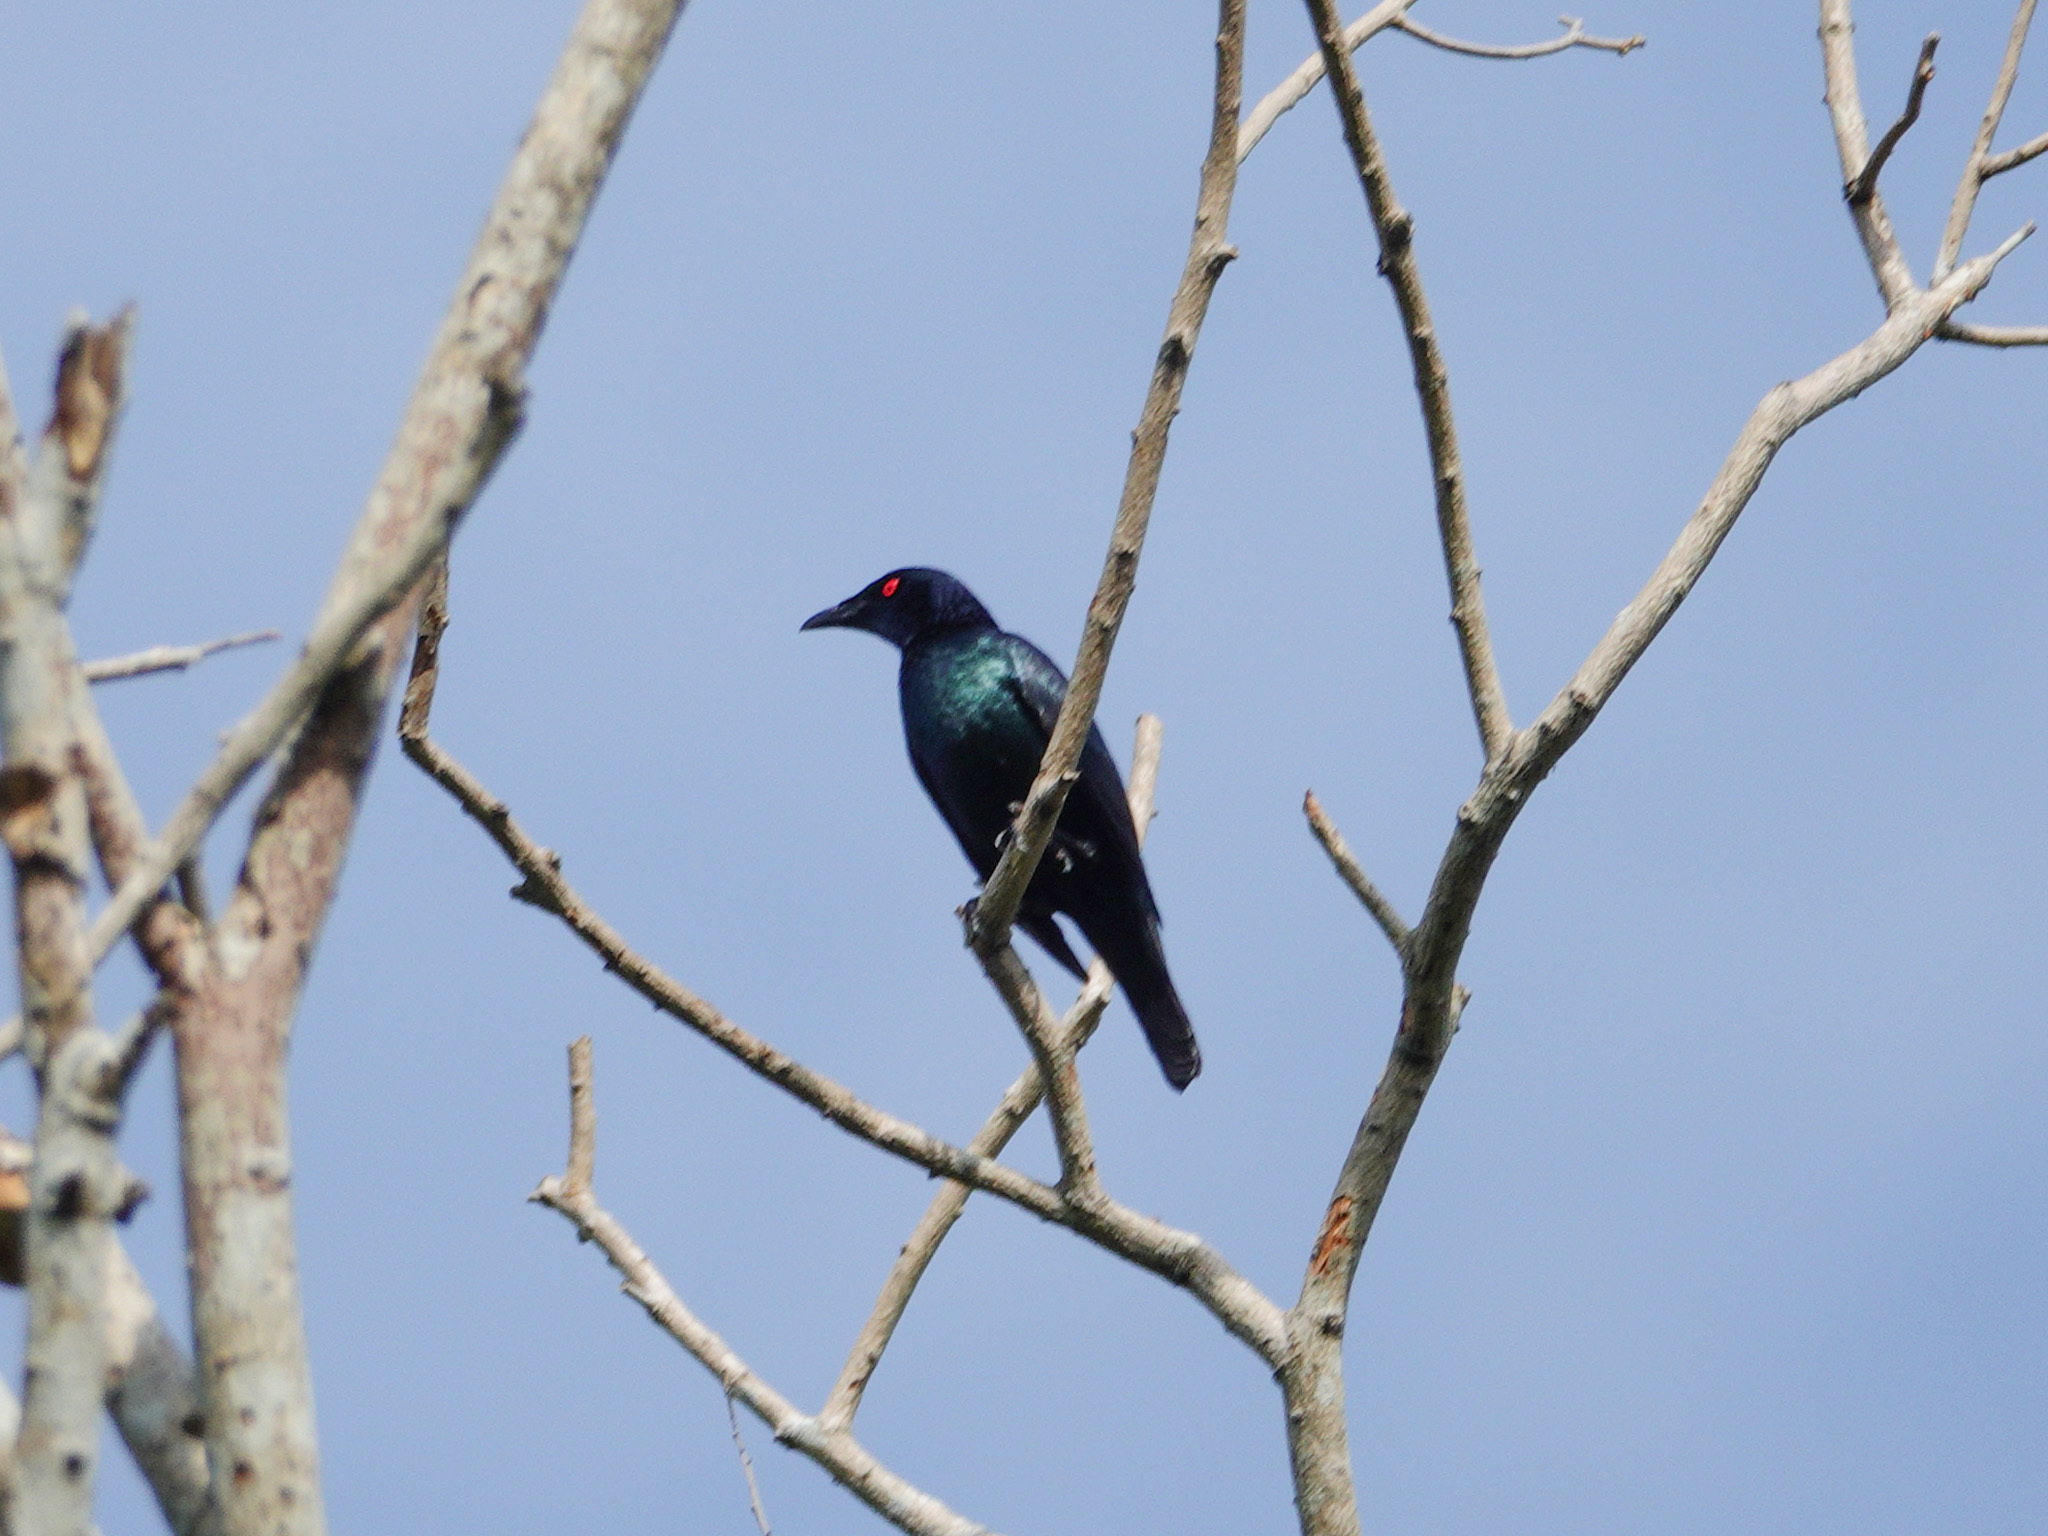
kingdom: Animalia
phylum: Chordata
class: Aves
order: Passeriformes
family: Sturnidae
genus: Aplonis
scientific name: Aplonis panayensis
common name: Asian glossy starling
